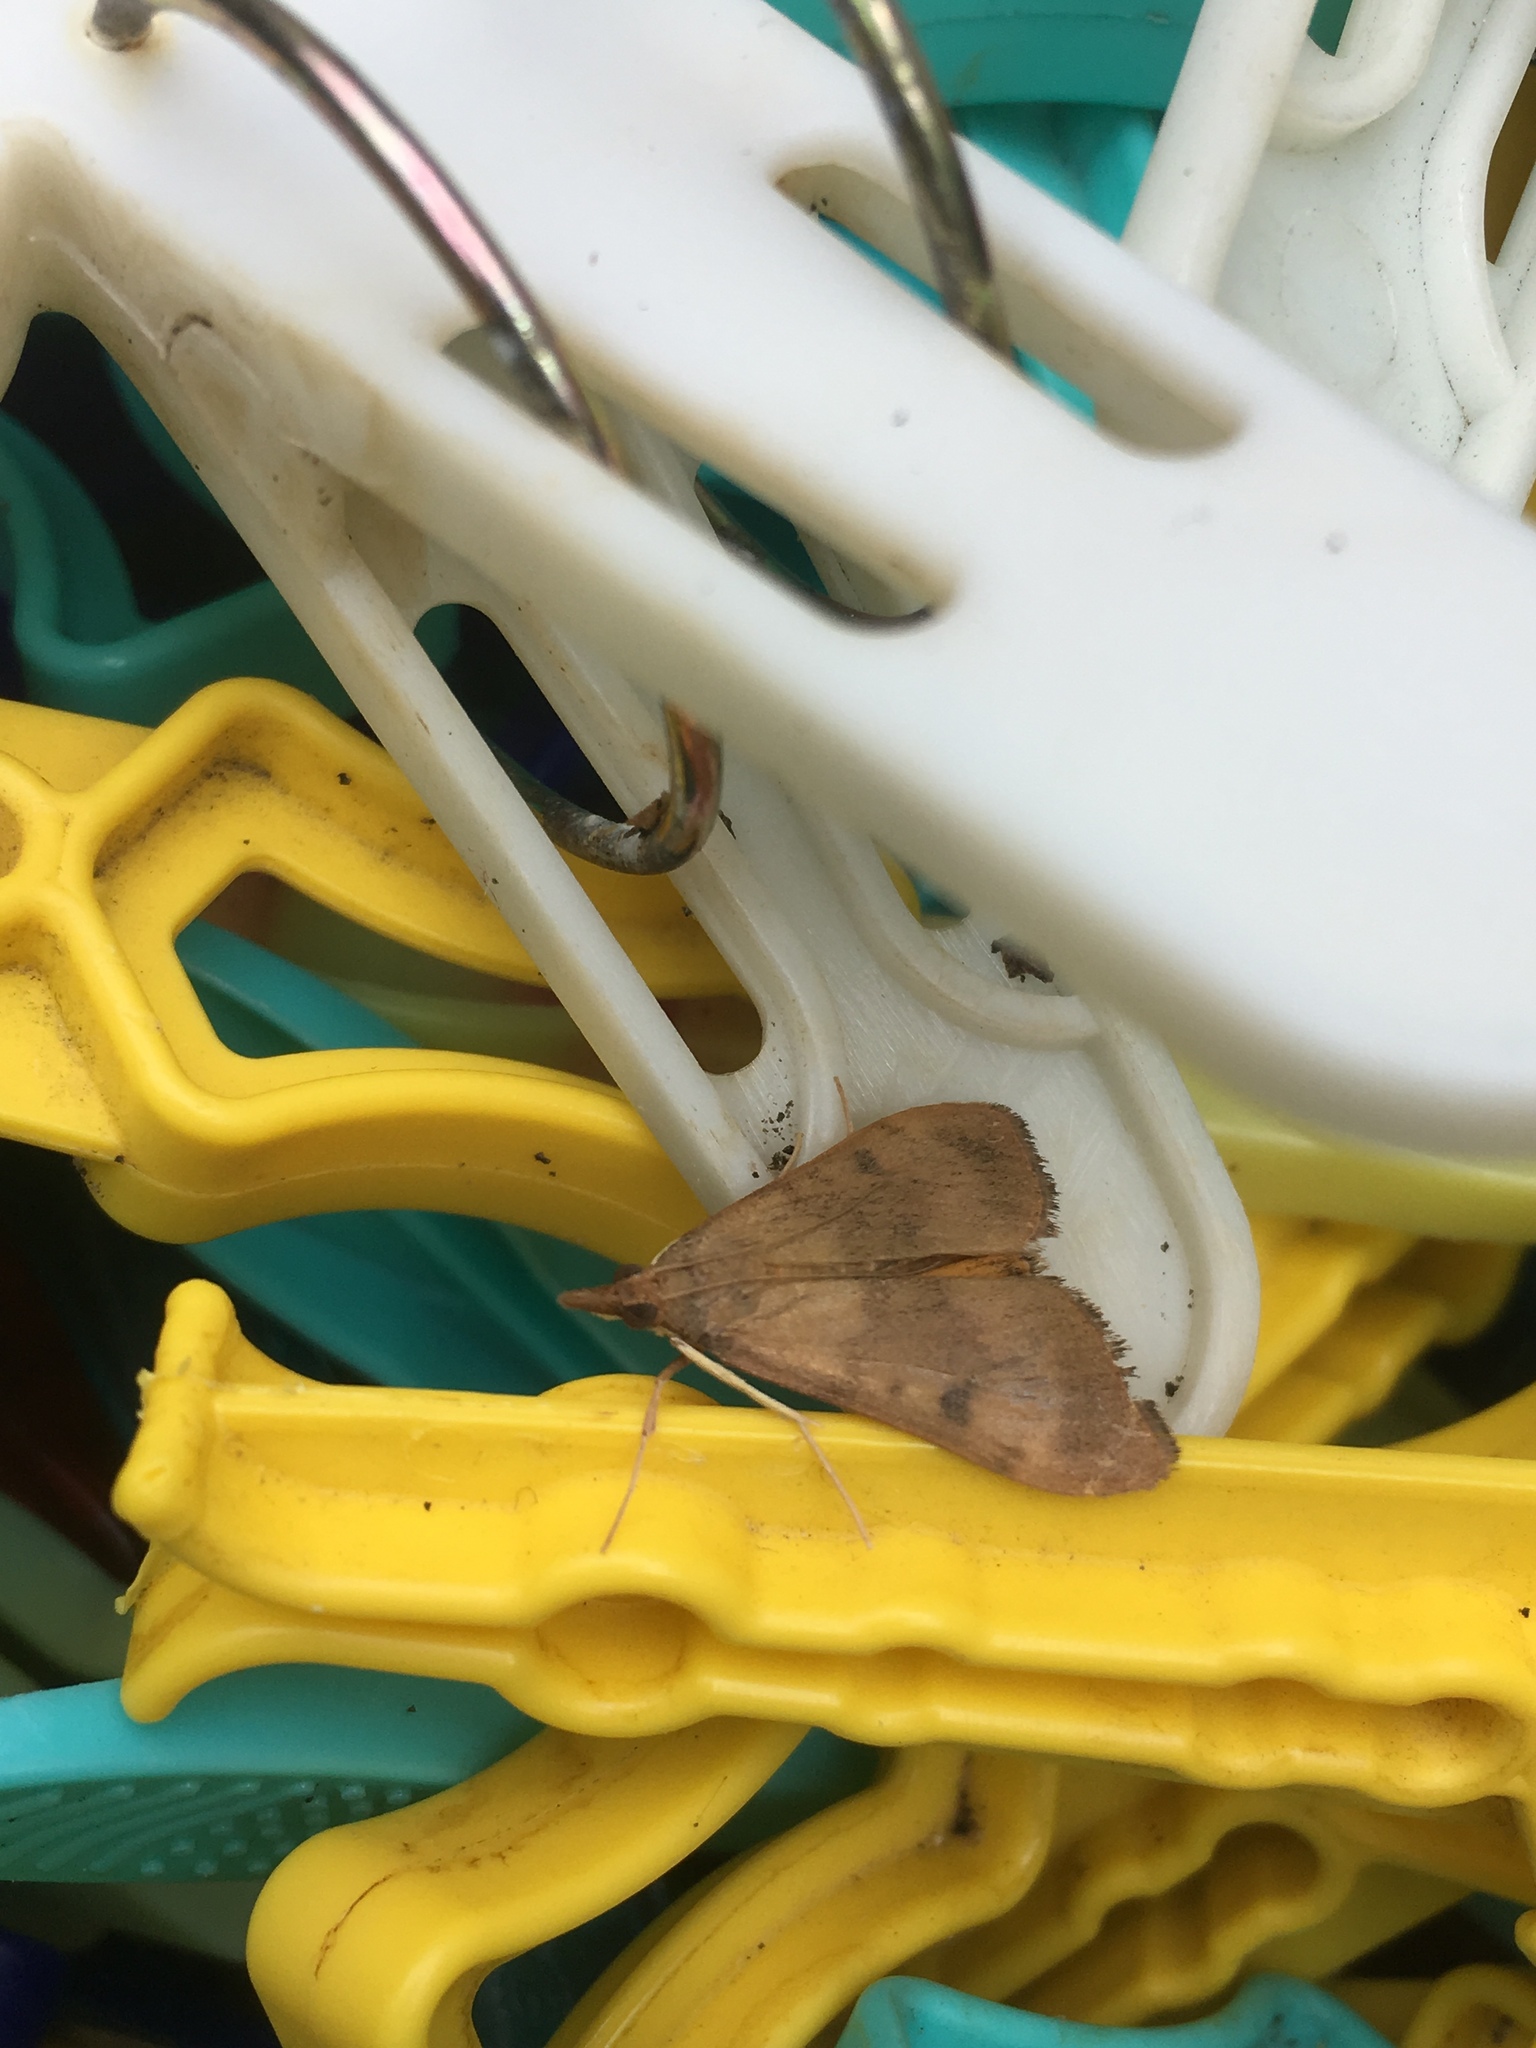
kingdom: Animalia
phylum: Arthropoda
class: Insecta
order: Lepidoptera
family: Crambidae
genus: Uresiphita
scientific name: Uresiphita
